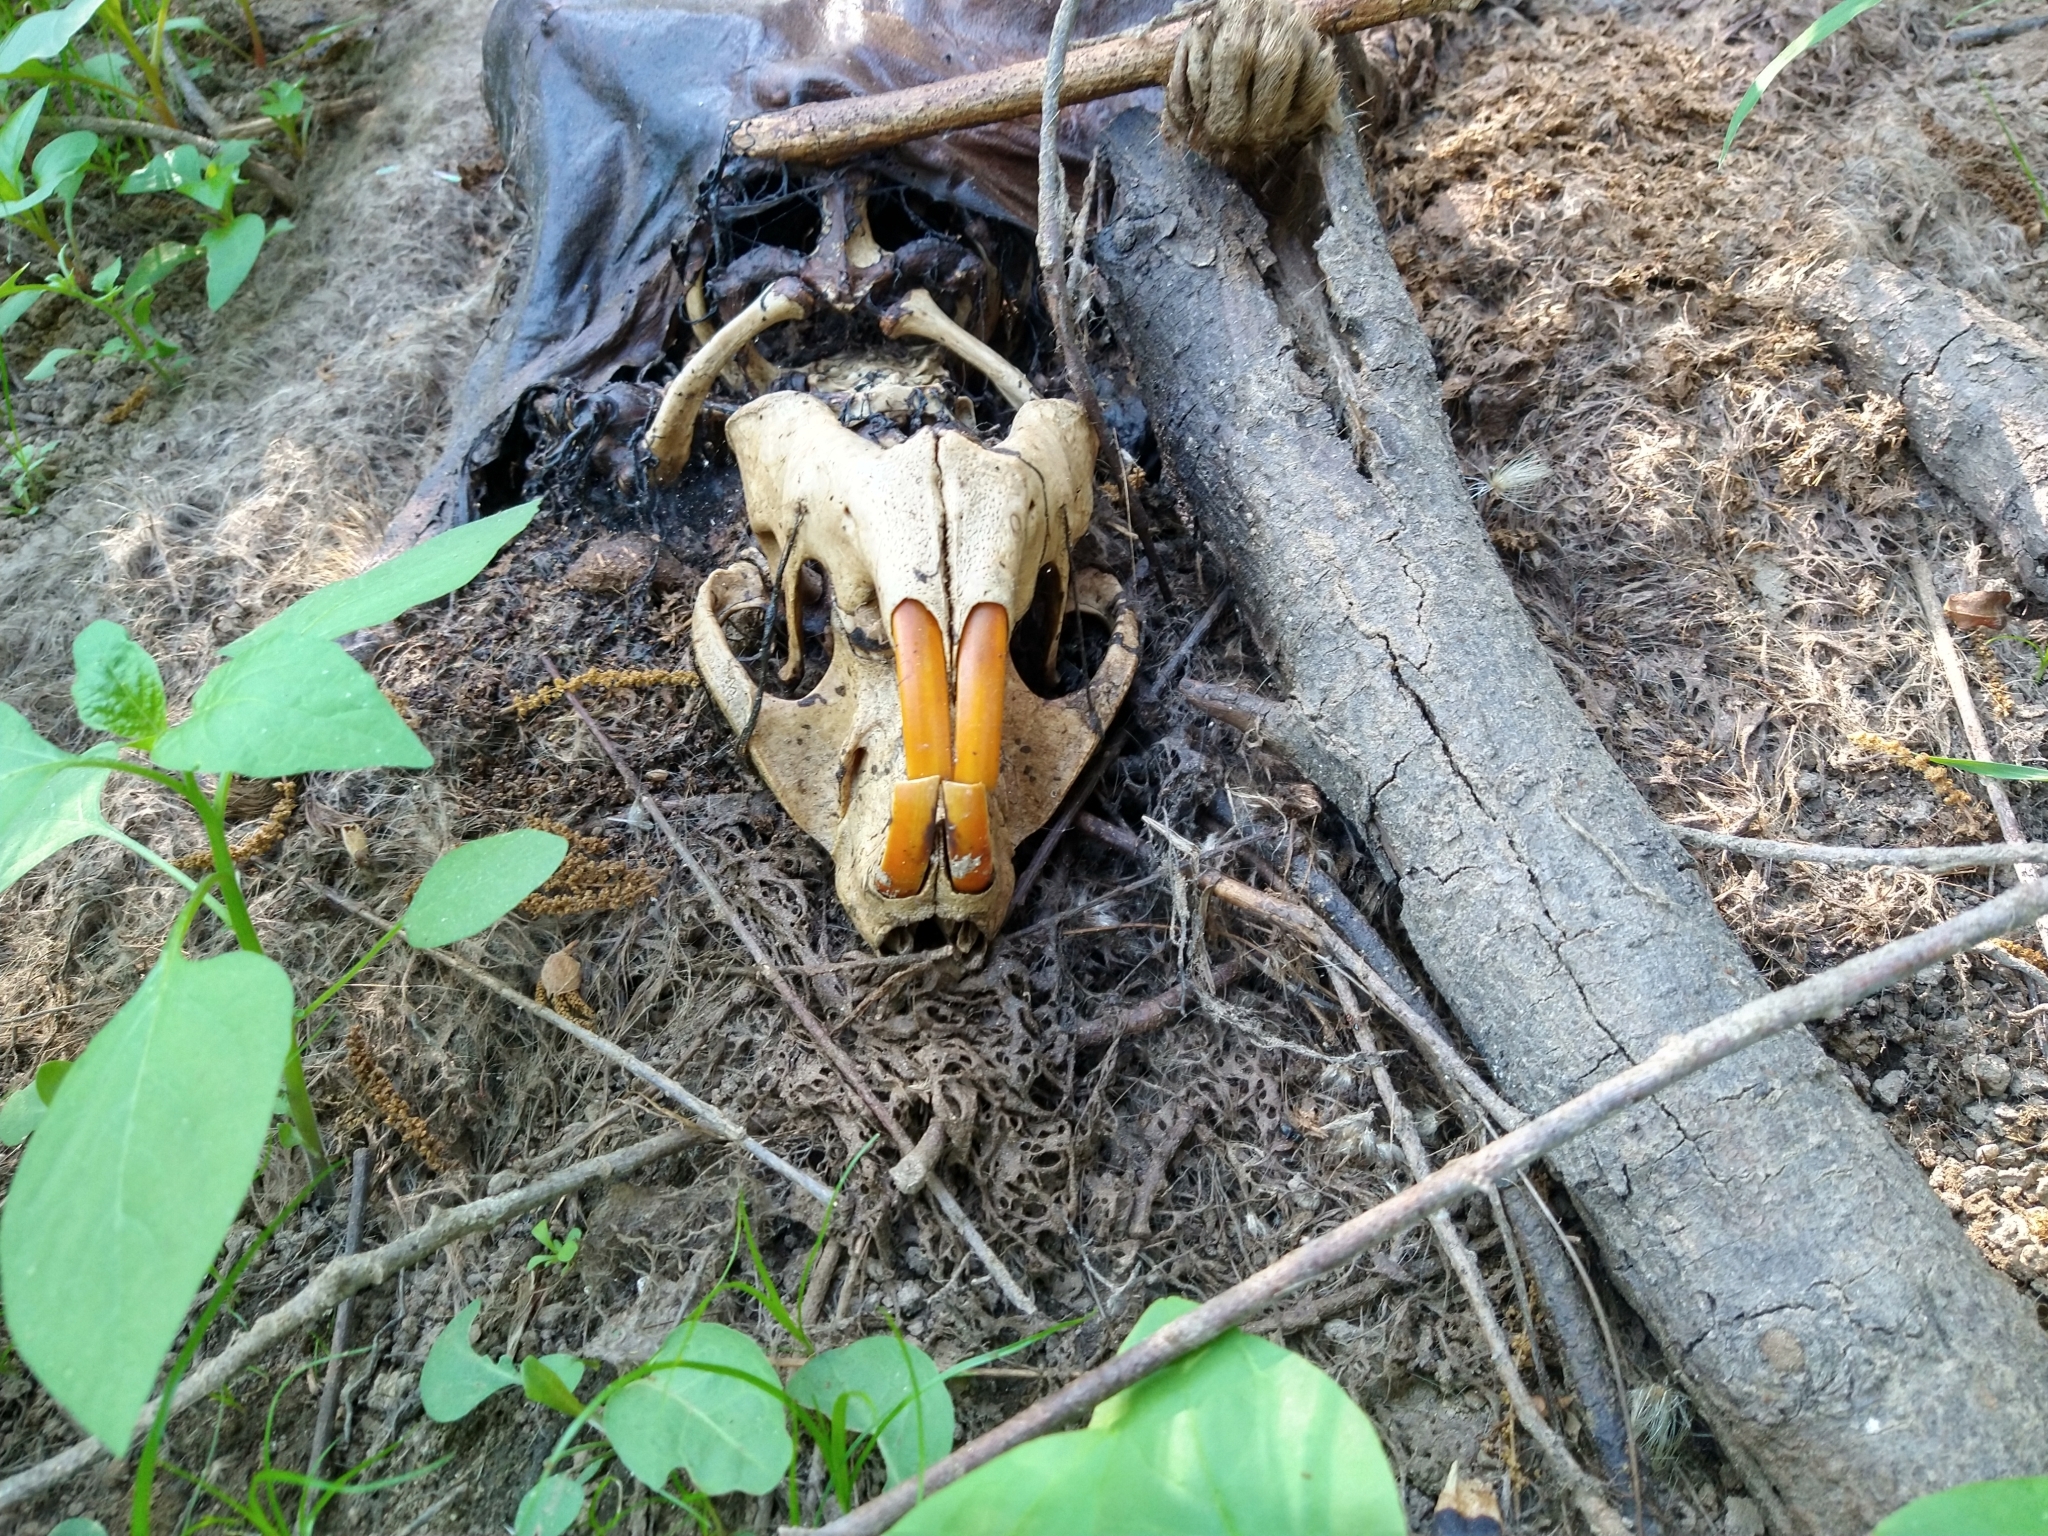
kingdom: Animalia
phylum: Chordata
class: Mammalia
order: Rodentia
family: Castoridae
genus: Castor
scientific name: Castor canadensis
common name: American beaver
